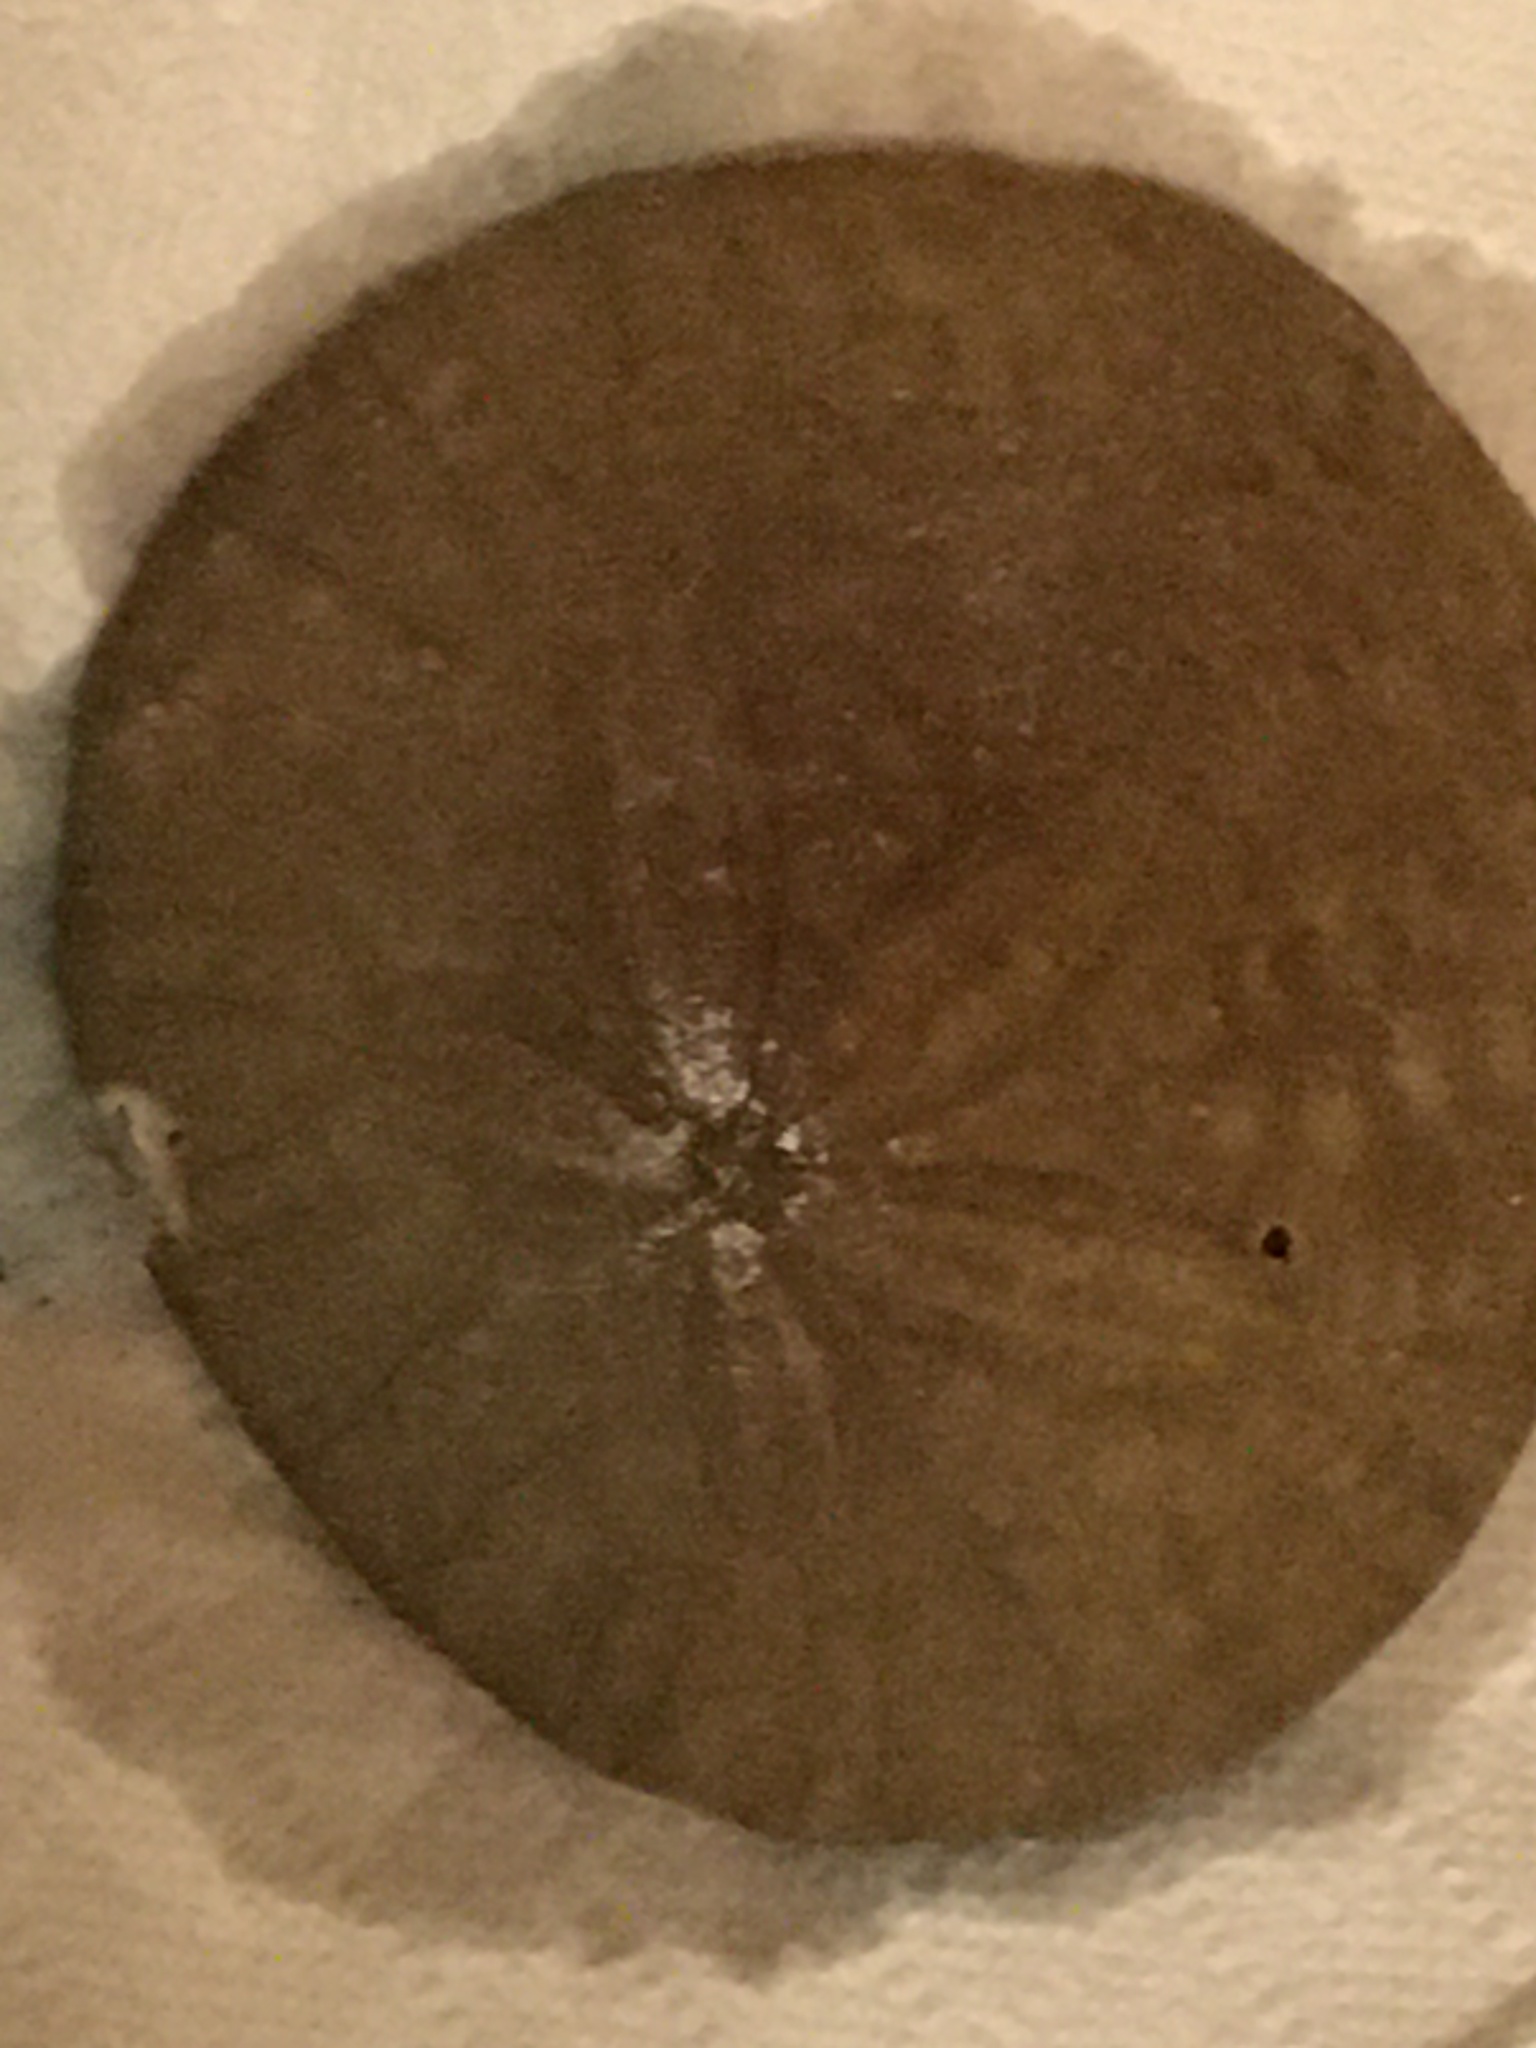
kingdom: Animalia
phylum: Echinodermata
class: Echinoidea
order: Echinolampadacea
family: Dendrasteridae
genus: Dendraster
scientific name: Dendraster excentricus
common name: Eccentric sand dollar sea urchin
